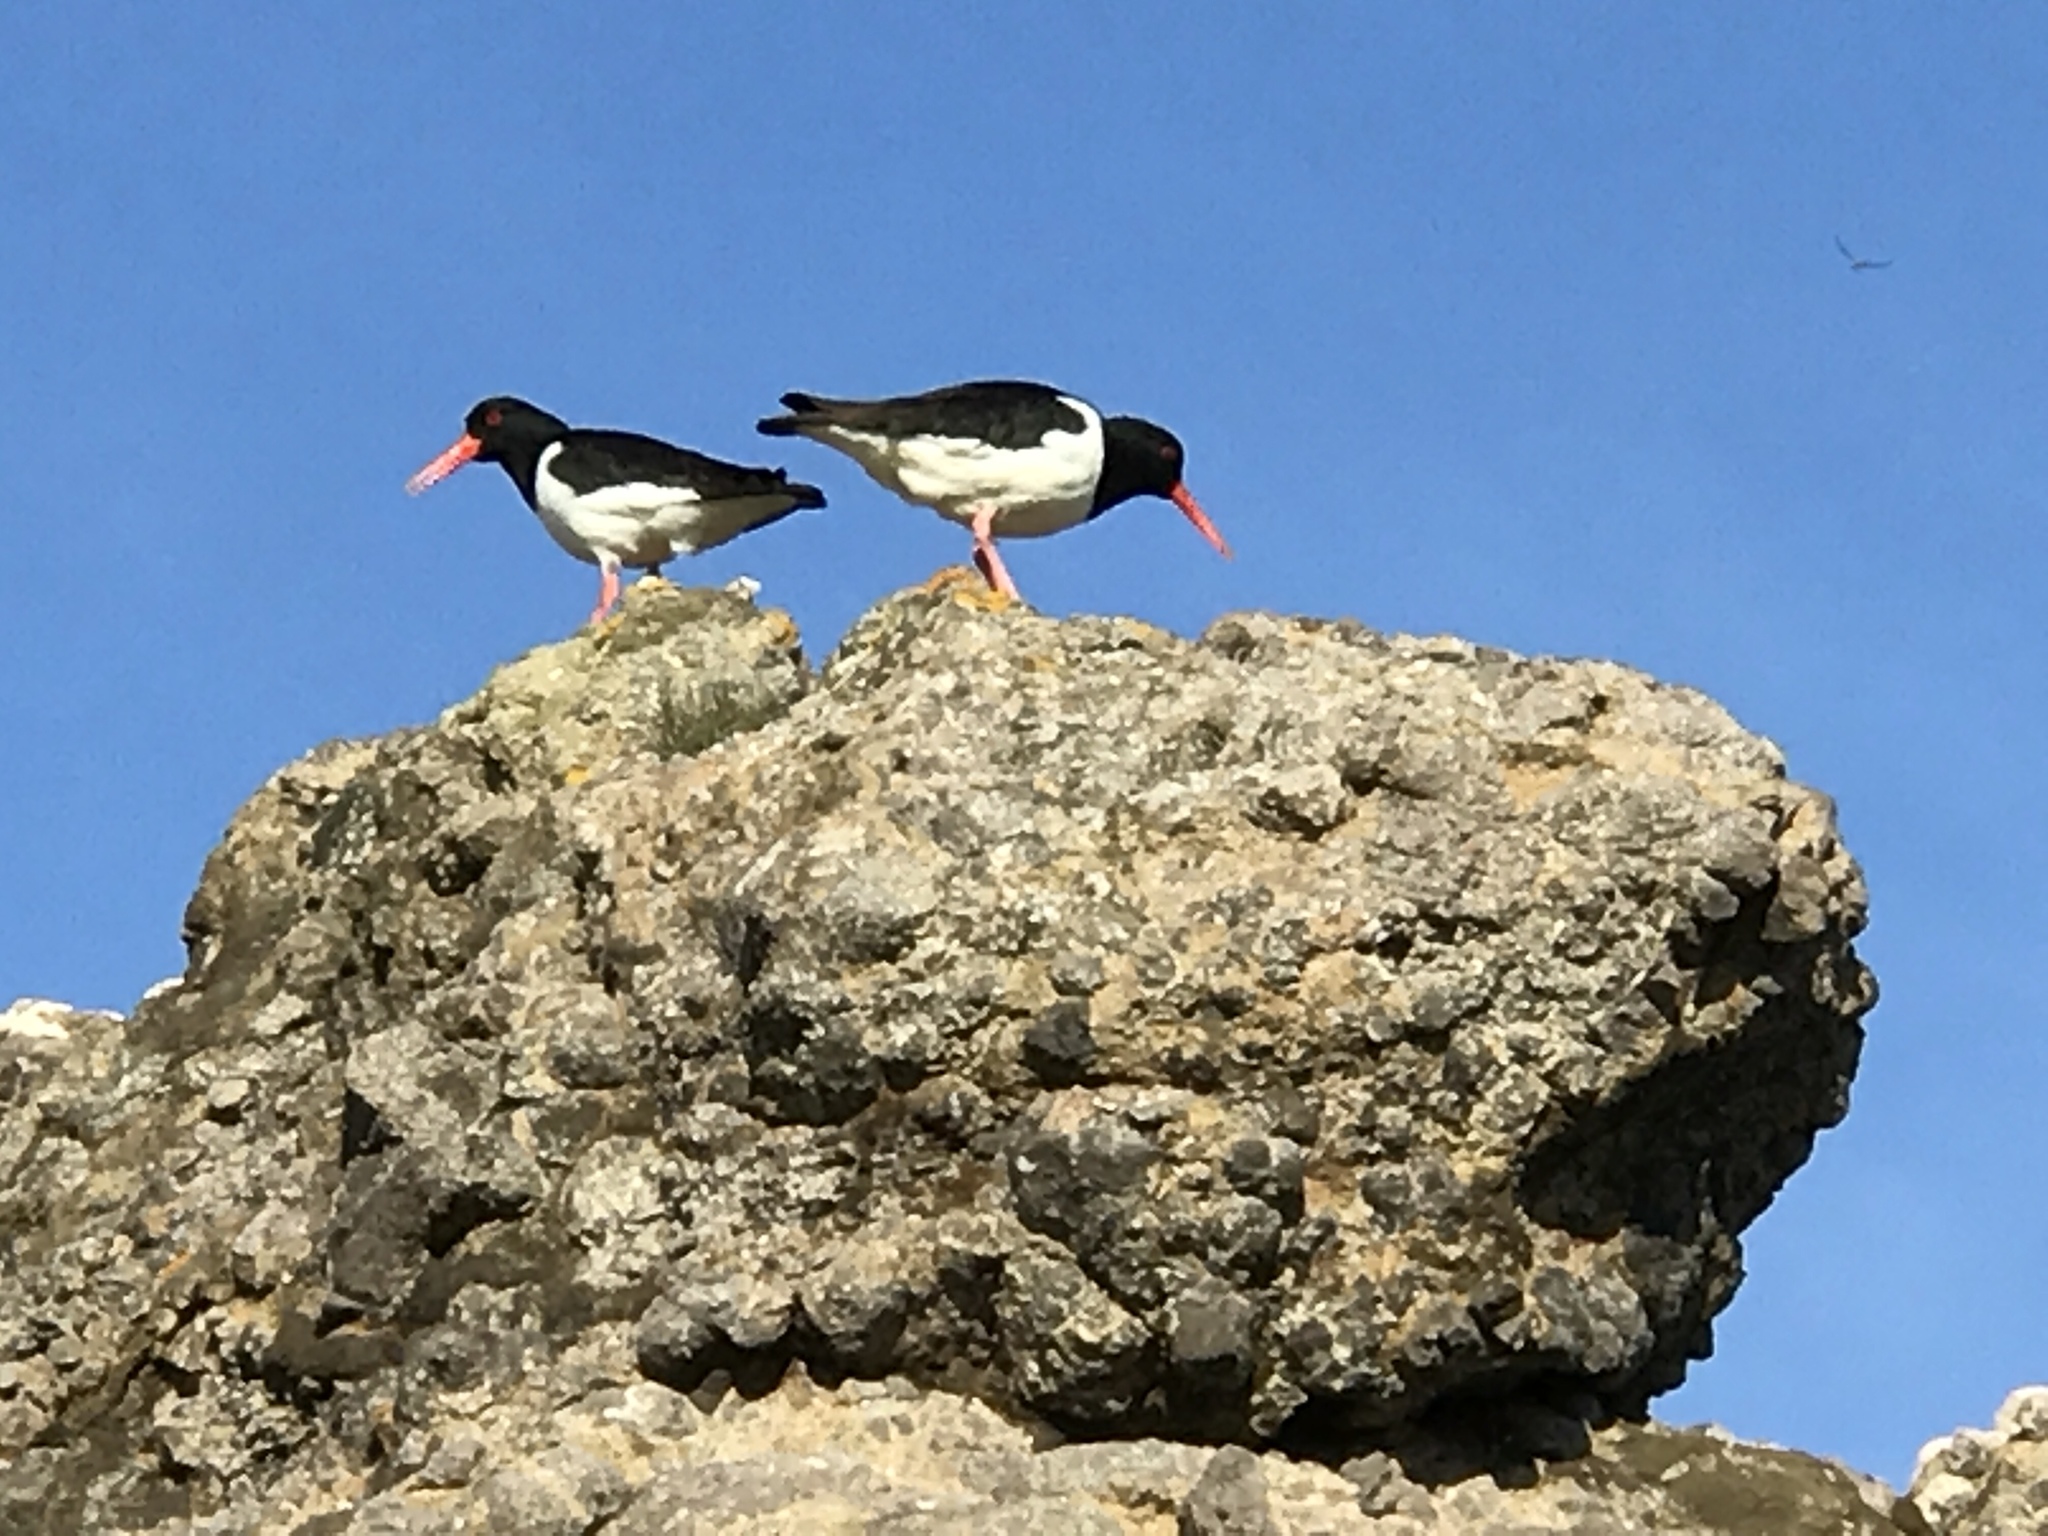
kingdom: Animalia
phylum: Chordata
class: Aves
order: Charadriiformes
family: Haematopodidae
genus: Haematopus
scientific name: Haematopus ostralegus
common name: Eurasian oystercatcher
